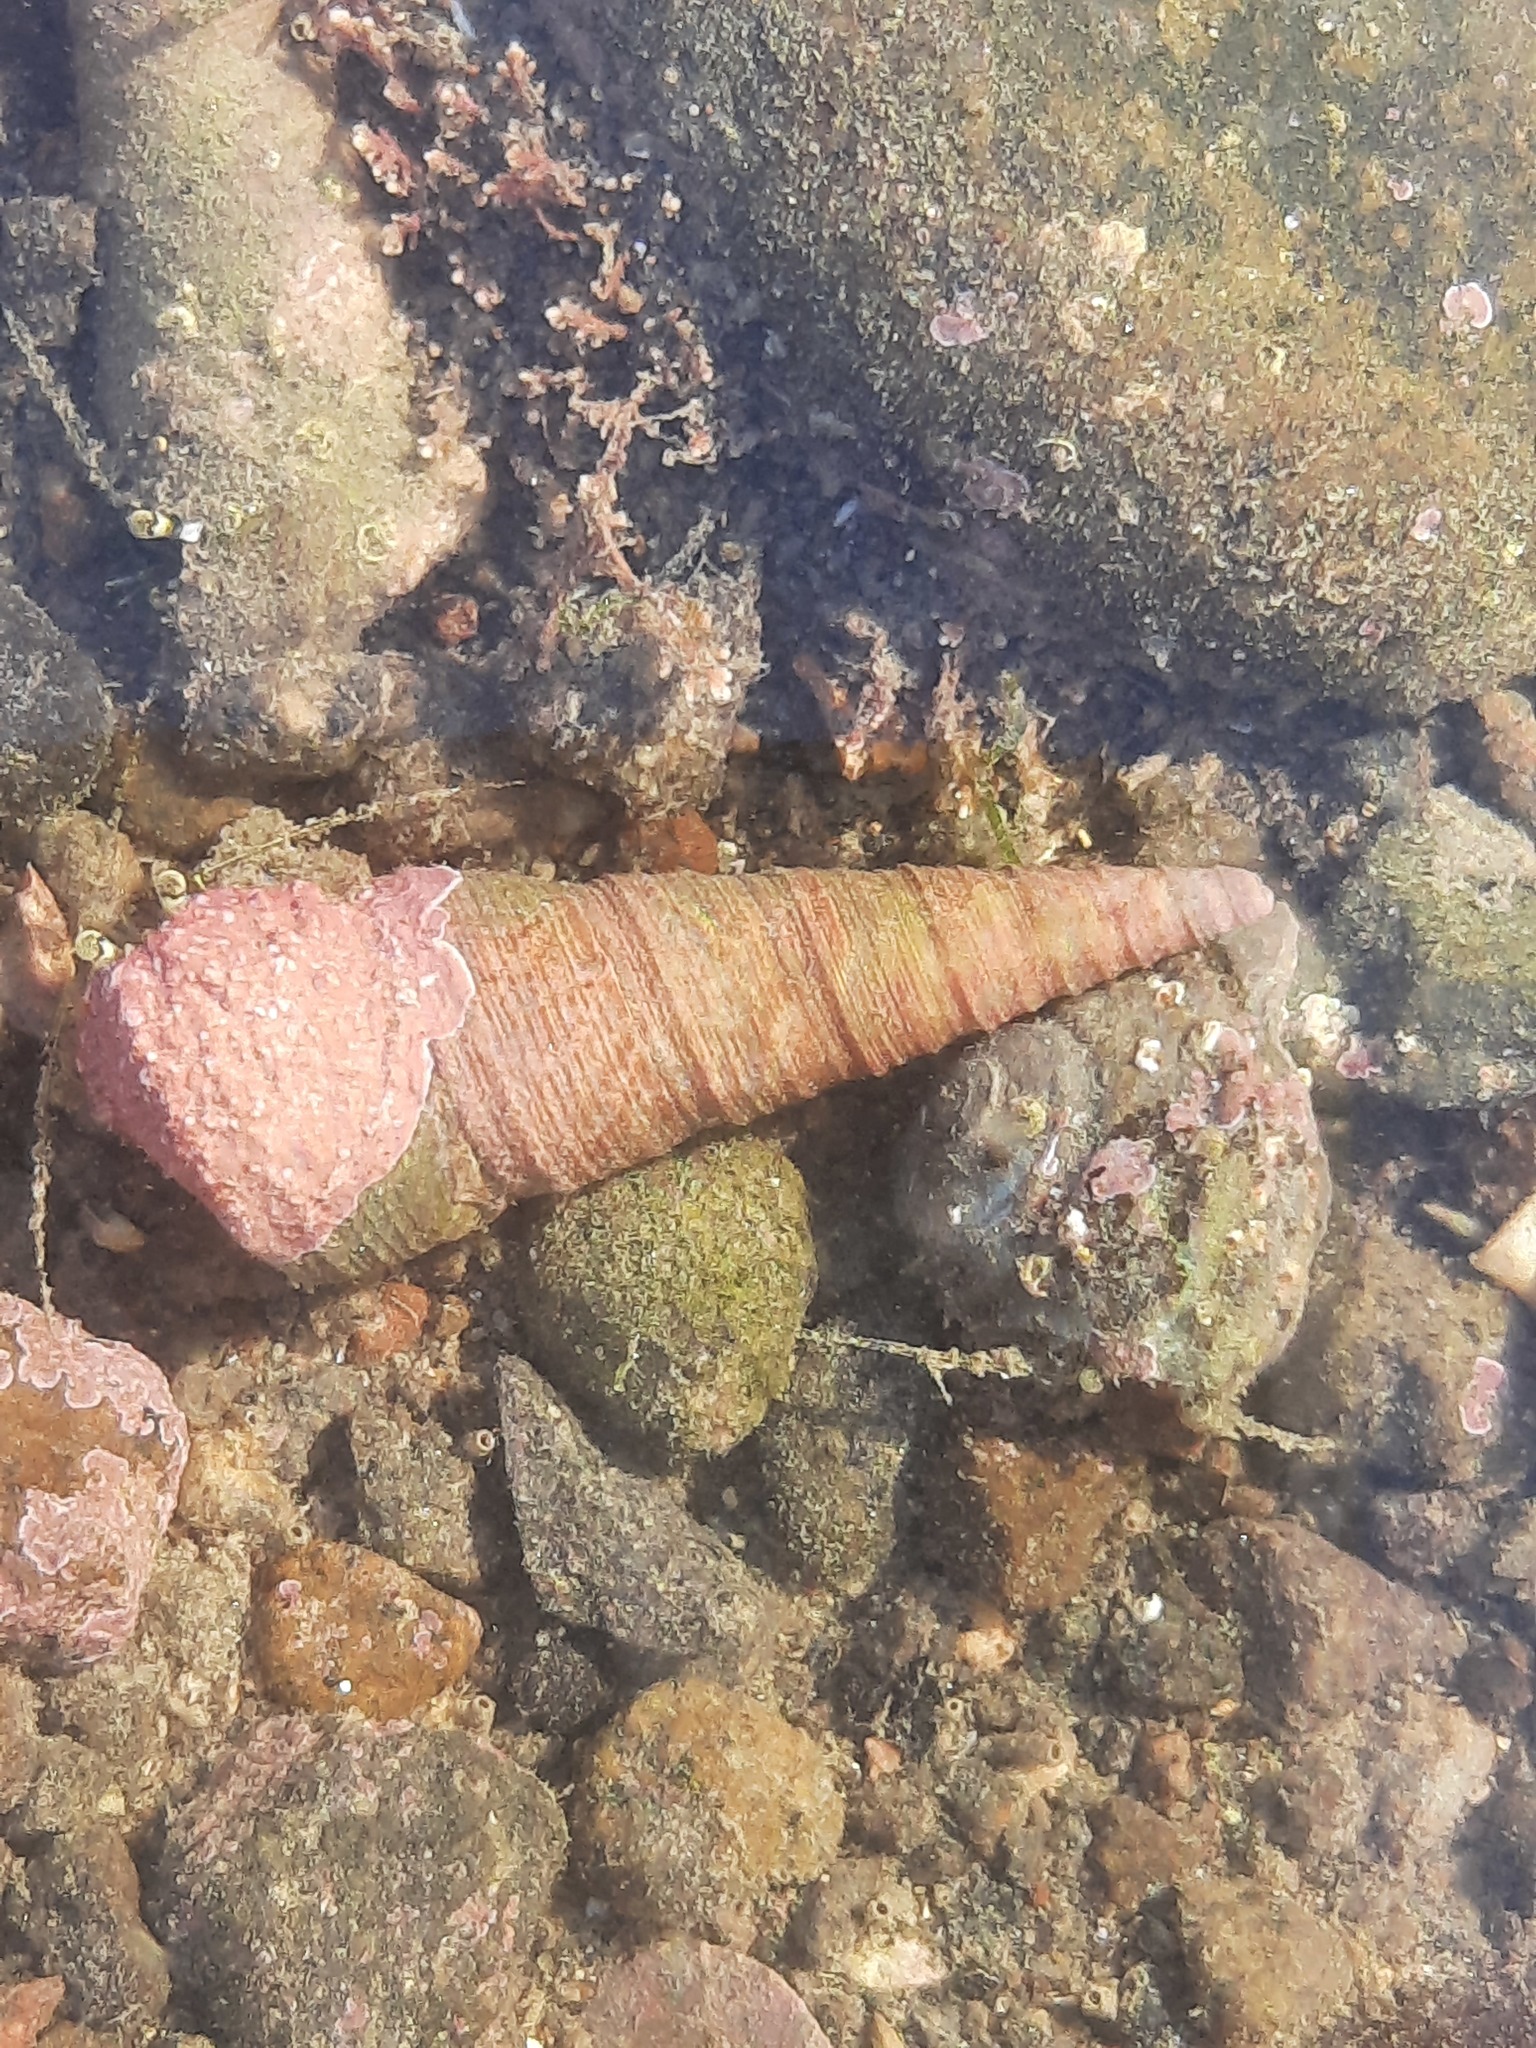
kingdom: Animalia
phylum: Mollusca
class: Gastropoda
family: Turritellidae
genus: Maoricolpus
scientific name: Maoricolpus roseus
